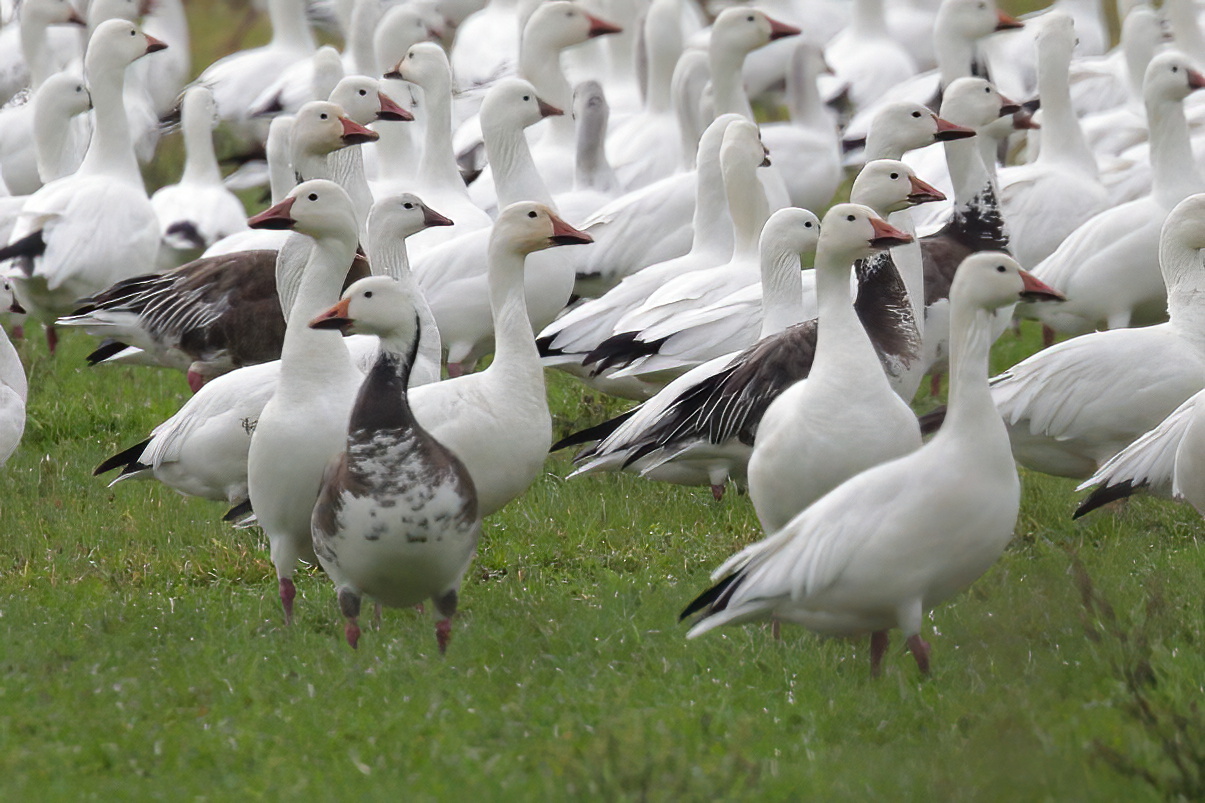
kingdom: Animalia
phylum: Chordata
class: Aves
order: Anseriformes
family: Anatidae
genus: Anser
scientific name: Anser caerulescens
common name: Snow goose
